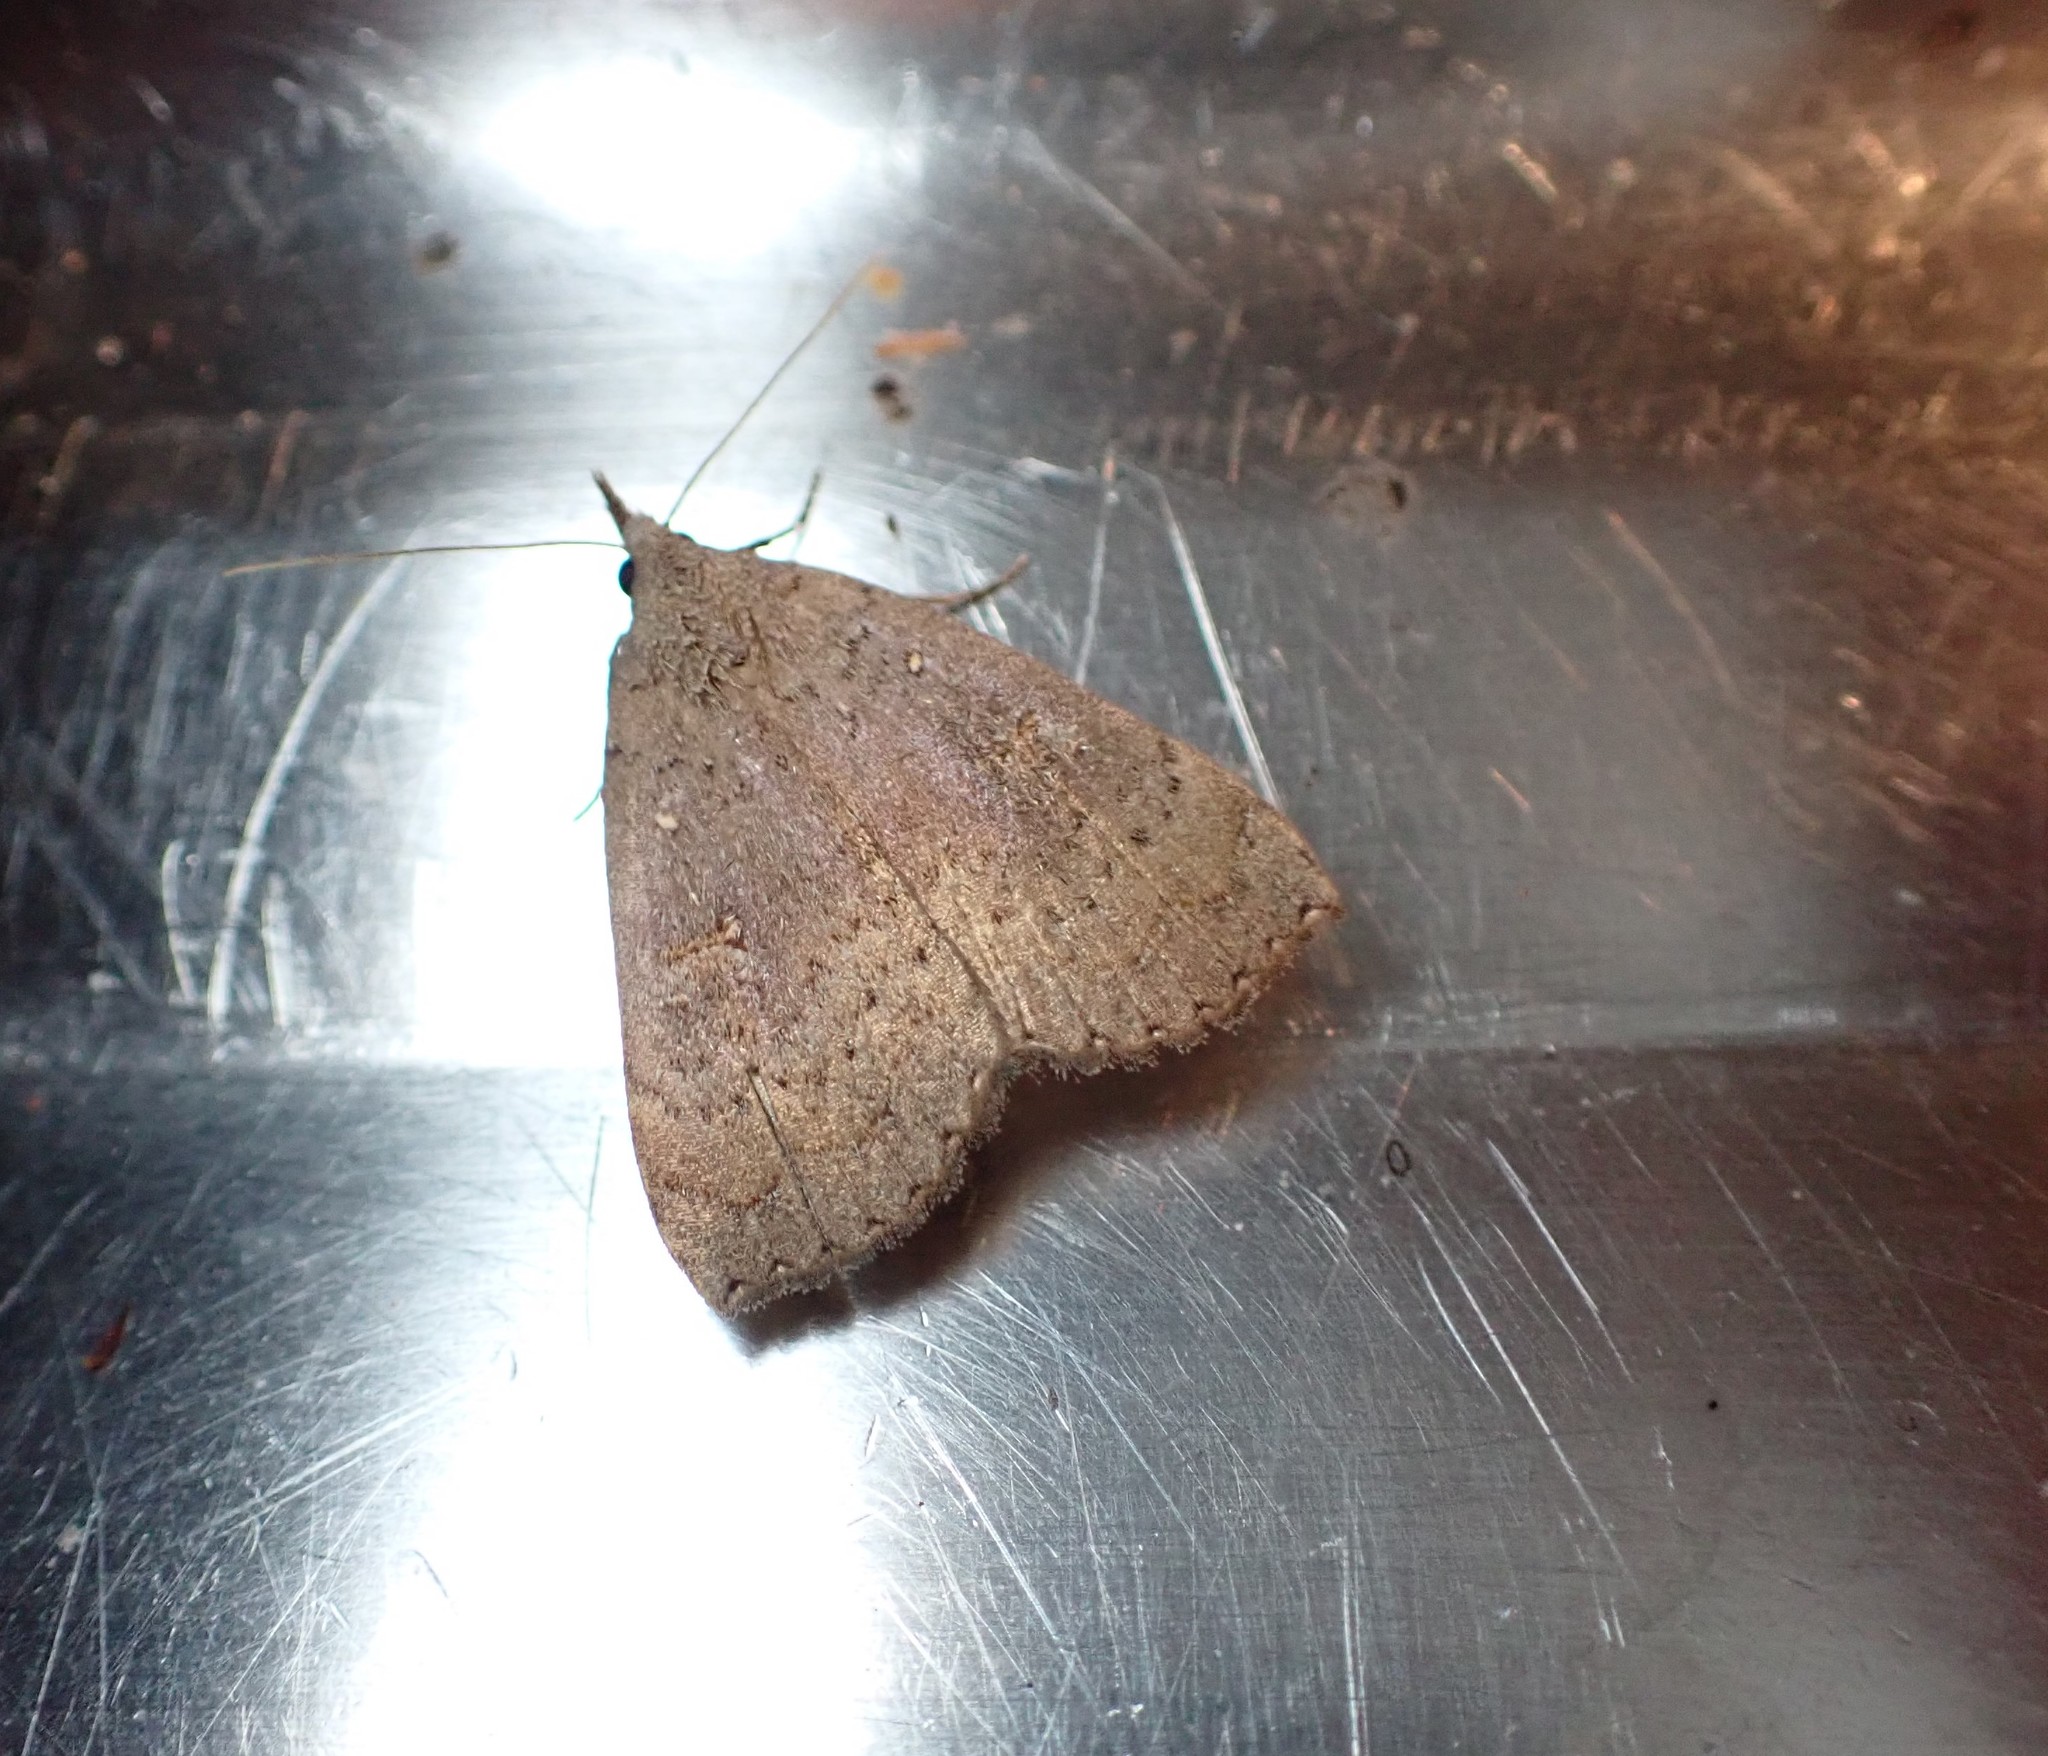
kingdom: Animalia
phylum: Arthropoda
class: Insecta
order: Lepidoptera
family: Erebidae
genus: Rhapsa
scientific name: Rhapsa scotosialis
